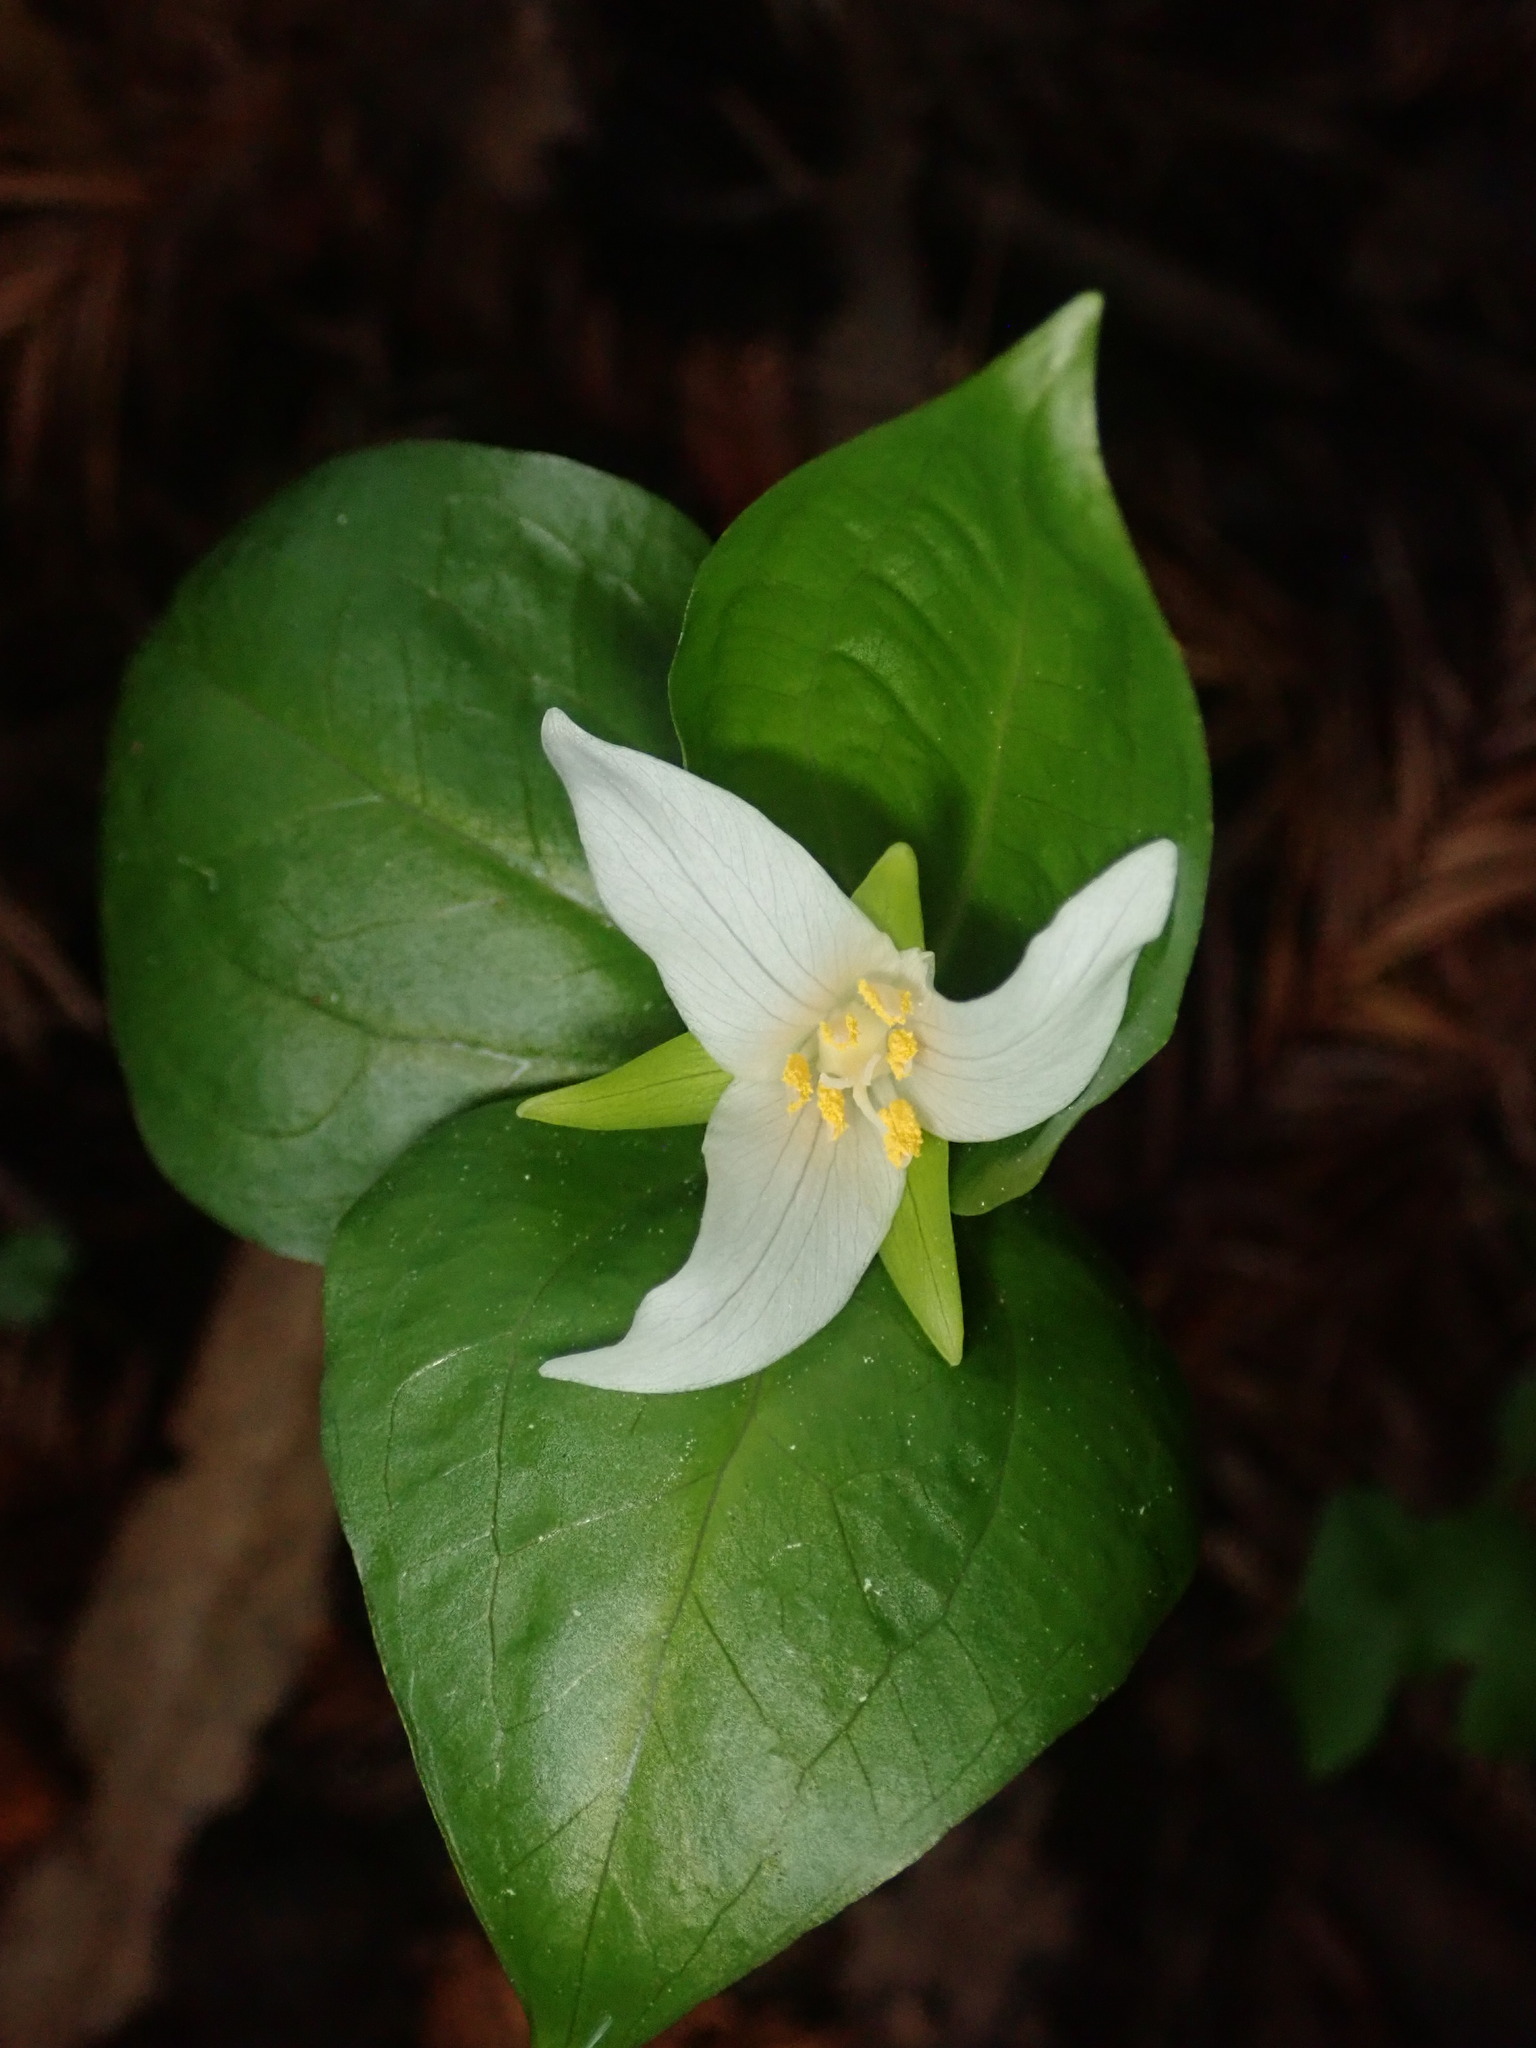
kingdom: Plantae
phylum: Tracheophyta
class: Liliopsida
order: Liliales
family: Melanthiaceae
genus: Trillium
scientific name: Trillium ovatum
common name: Pacific trillium
